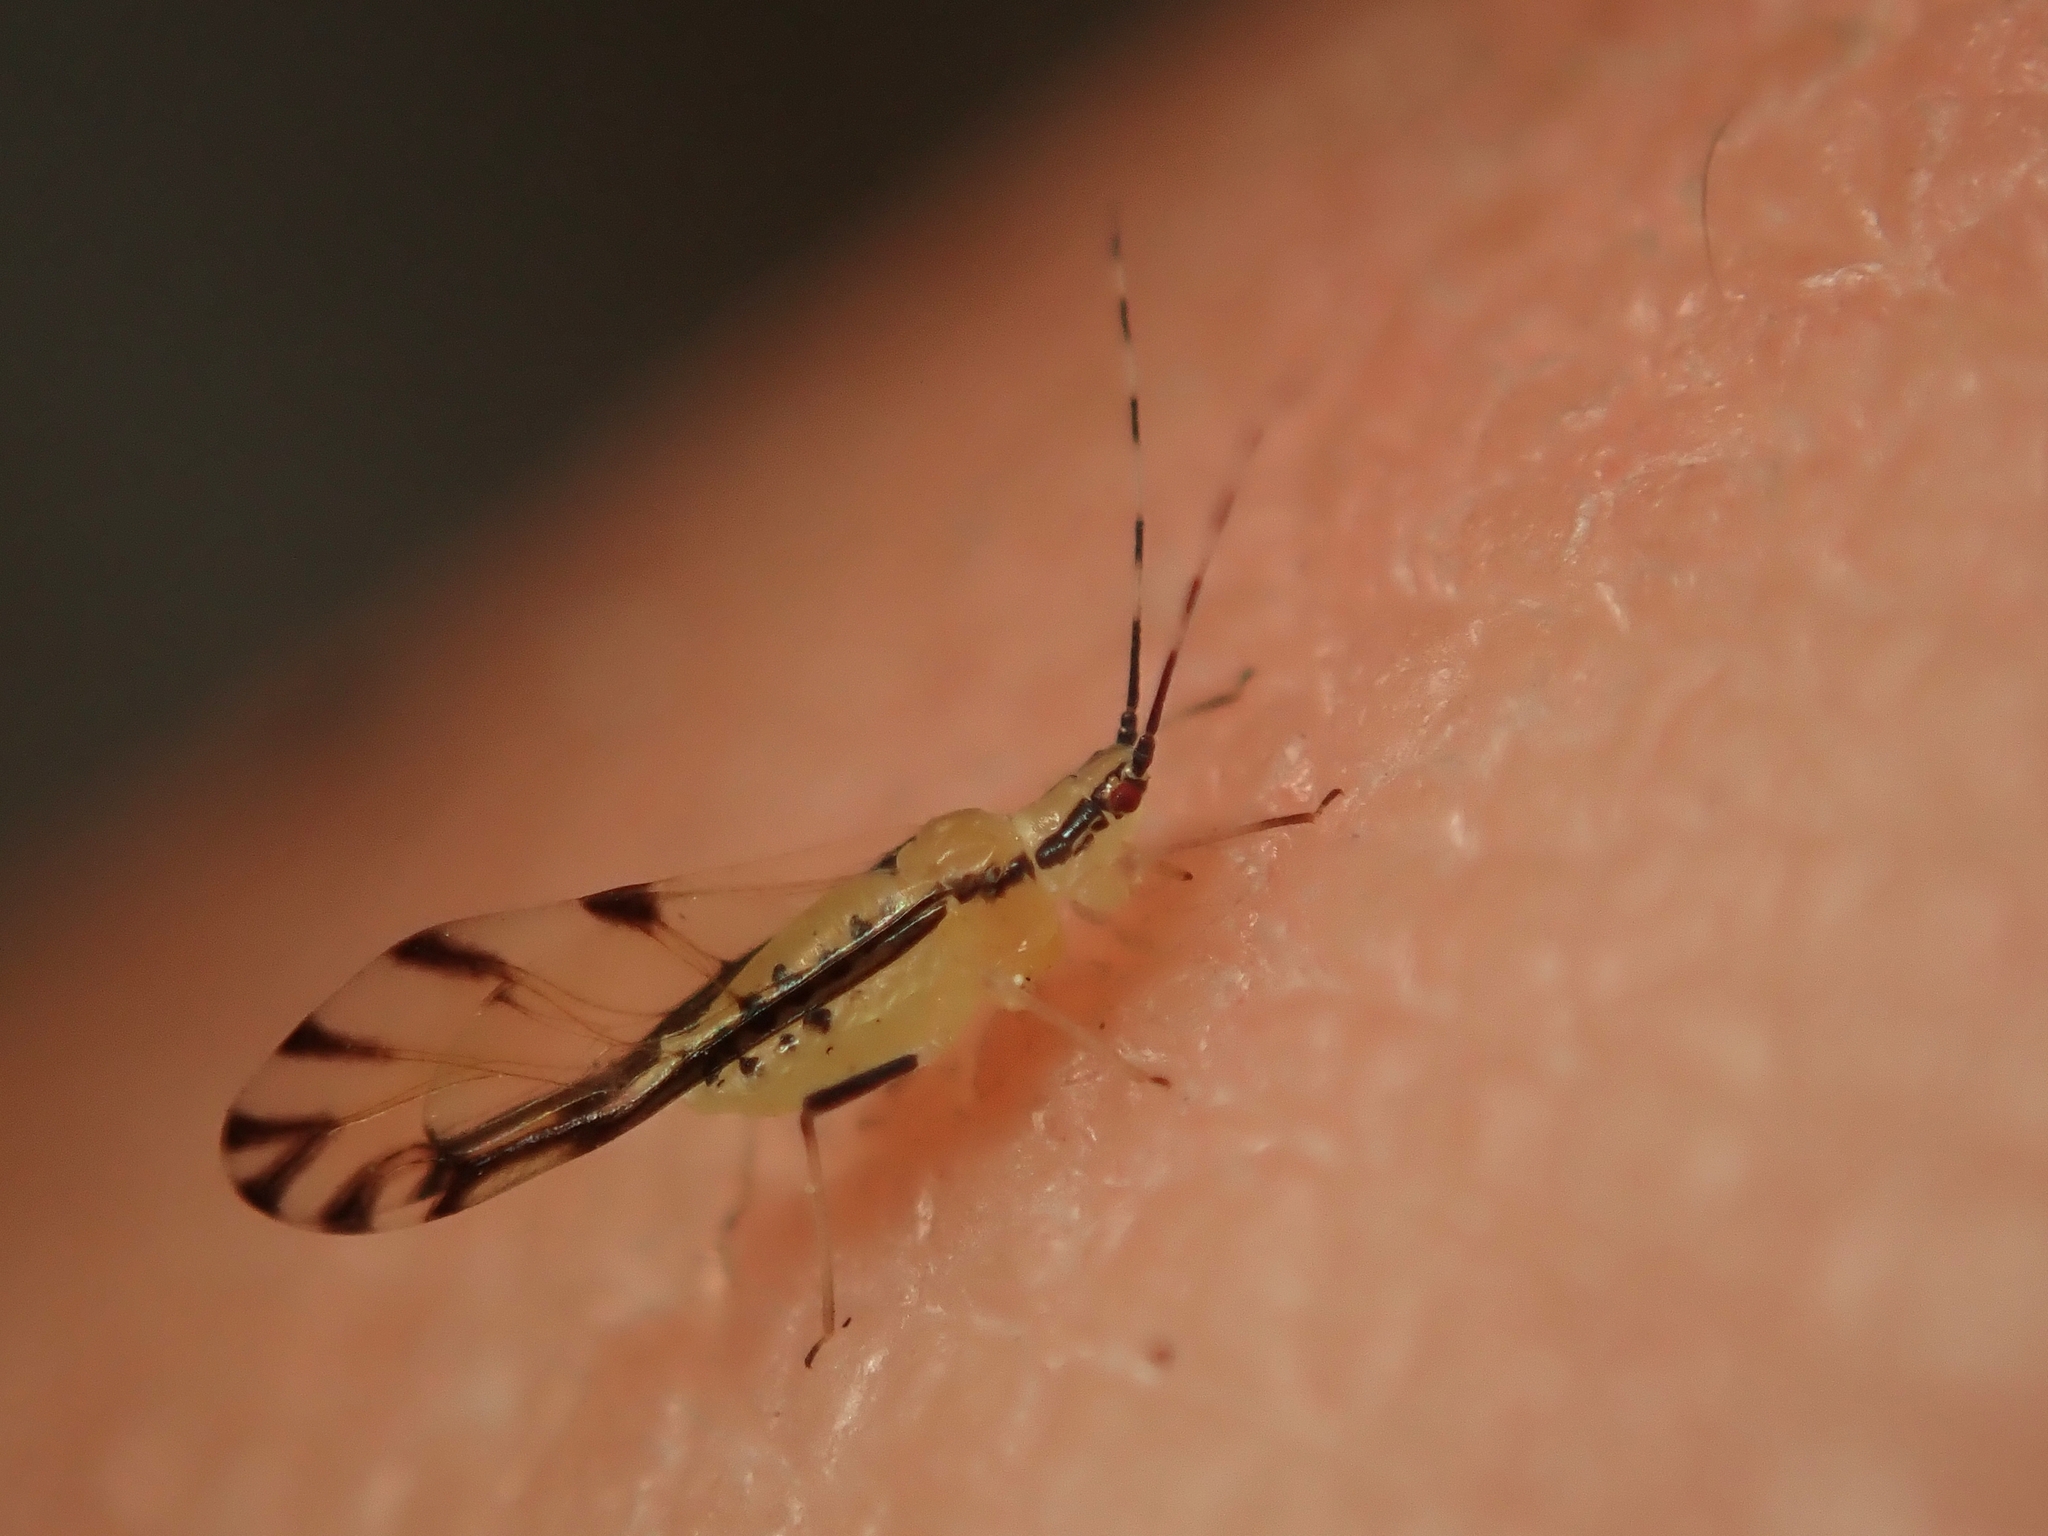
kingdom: Animalia
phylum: Arthropoda
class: Insecta
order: Hemiptera
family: Aphididae
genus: Eucallipterus
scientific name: Eucallipterus tiliae
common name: Aphid
